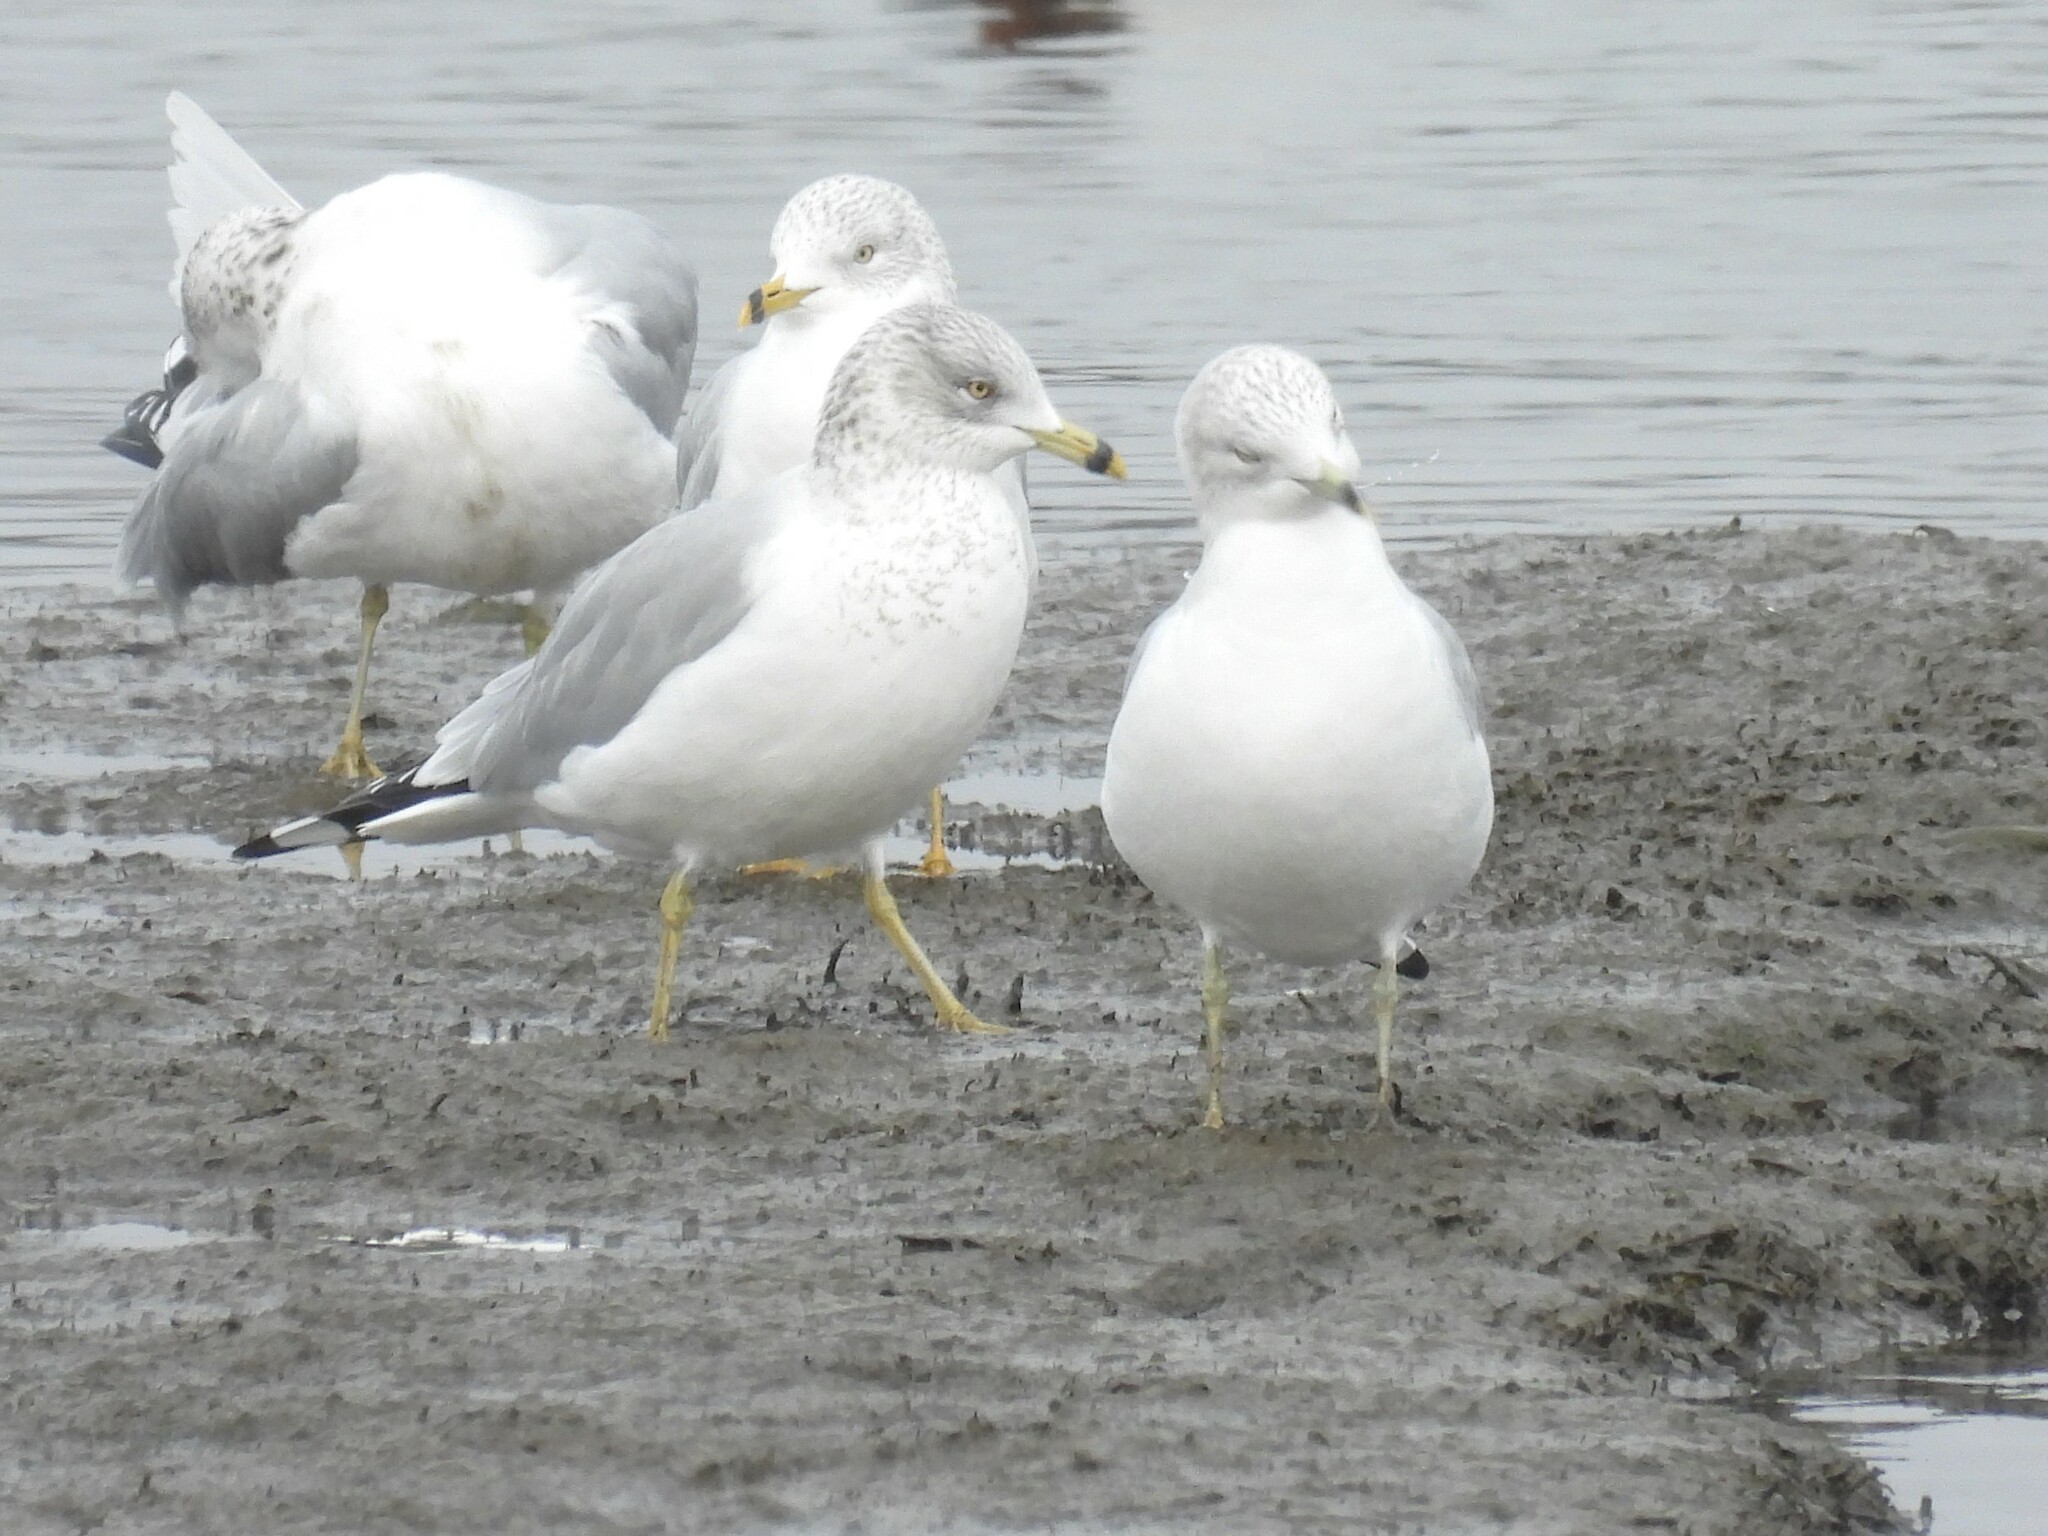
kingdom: Animalia
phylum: Chordata
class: Aves
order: Charadriiformes
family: Laridae
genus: Larus
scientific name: Larus delawarensis
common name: Ring-billed gull
